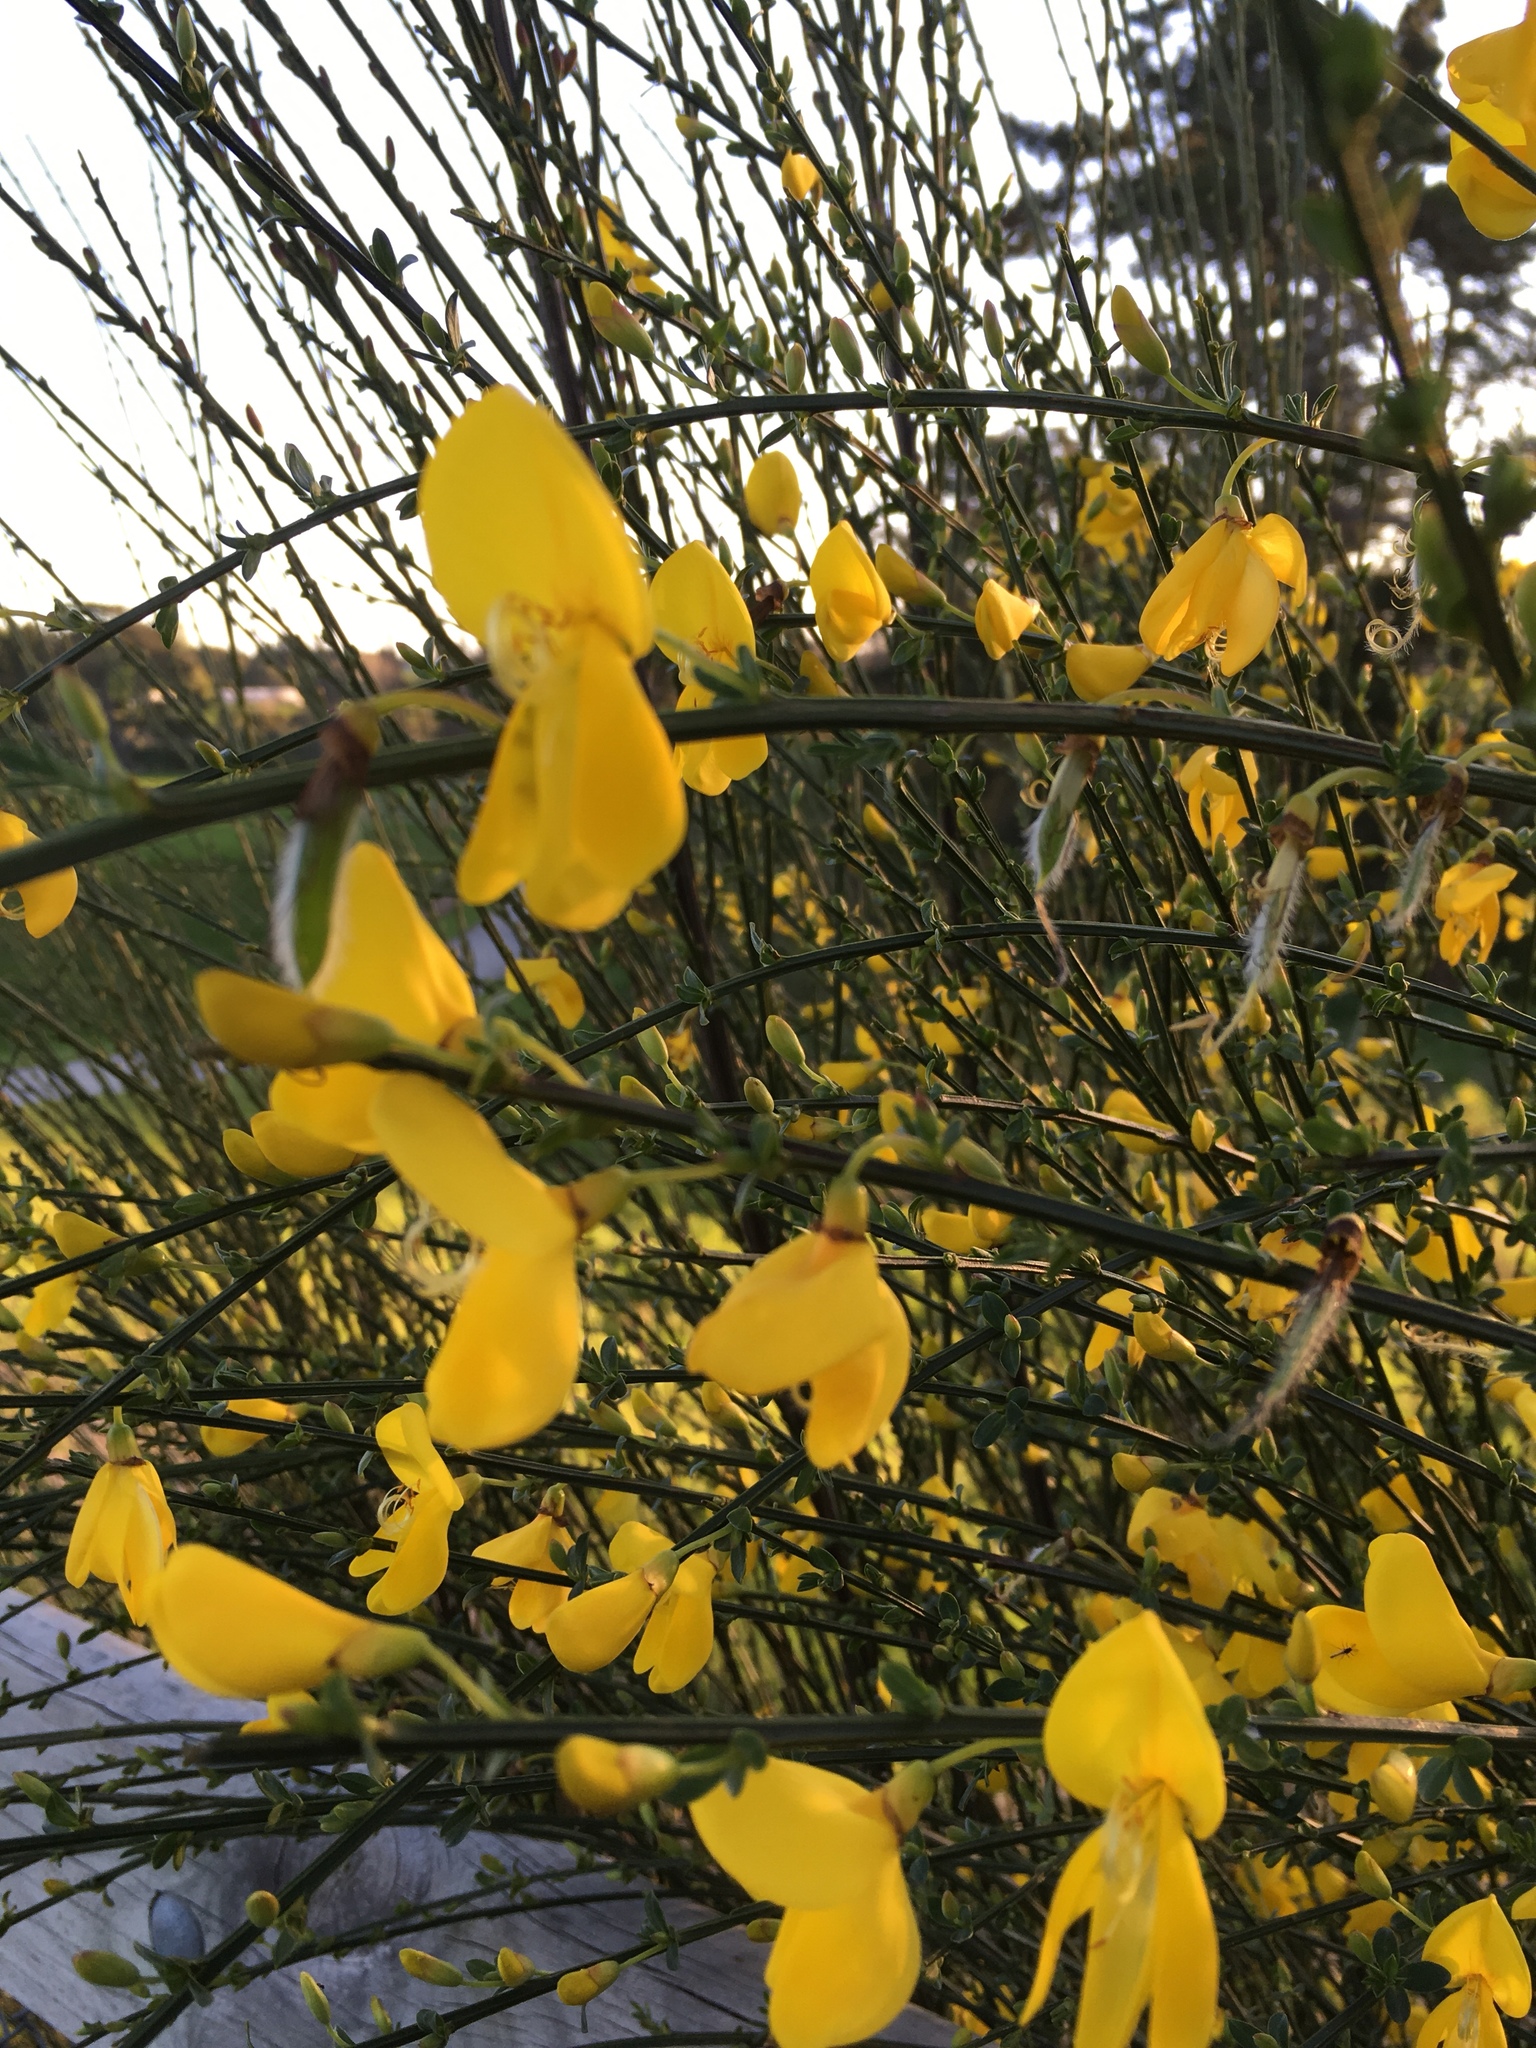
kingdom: Plantae
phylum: Tracheophyta
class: Magnoliopsida
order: Fabales
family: Fabaceae
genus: Cytisus
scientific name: Cytisus scoparius
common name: Scotch broom
